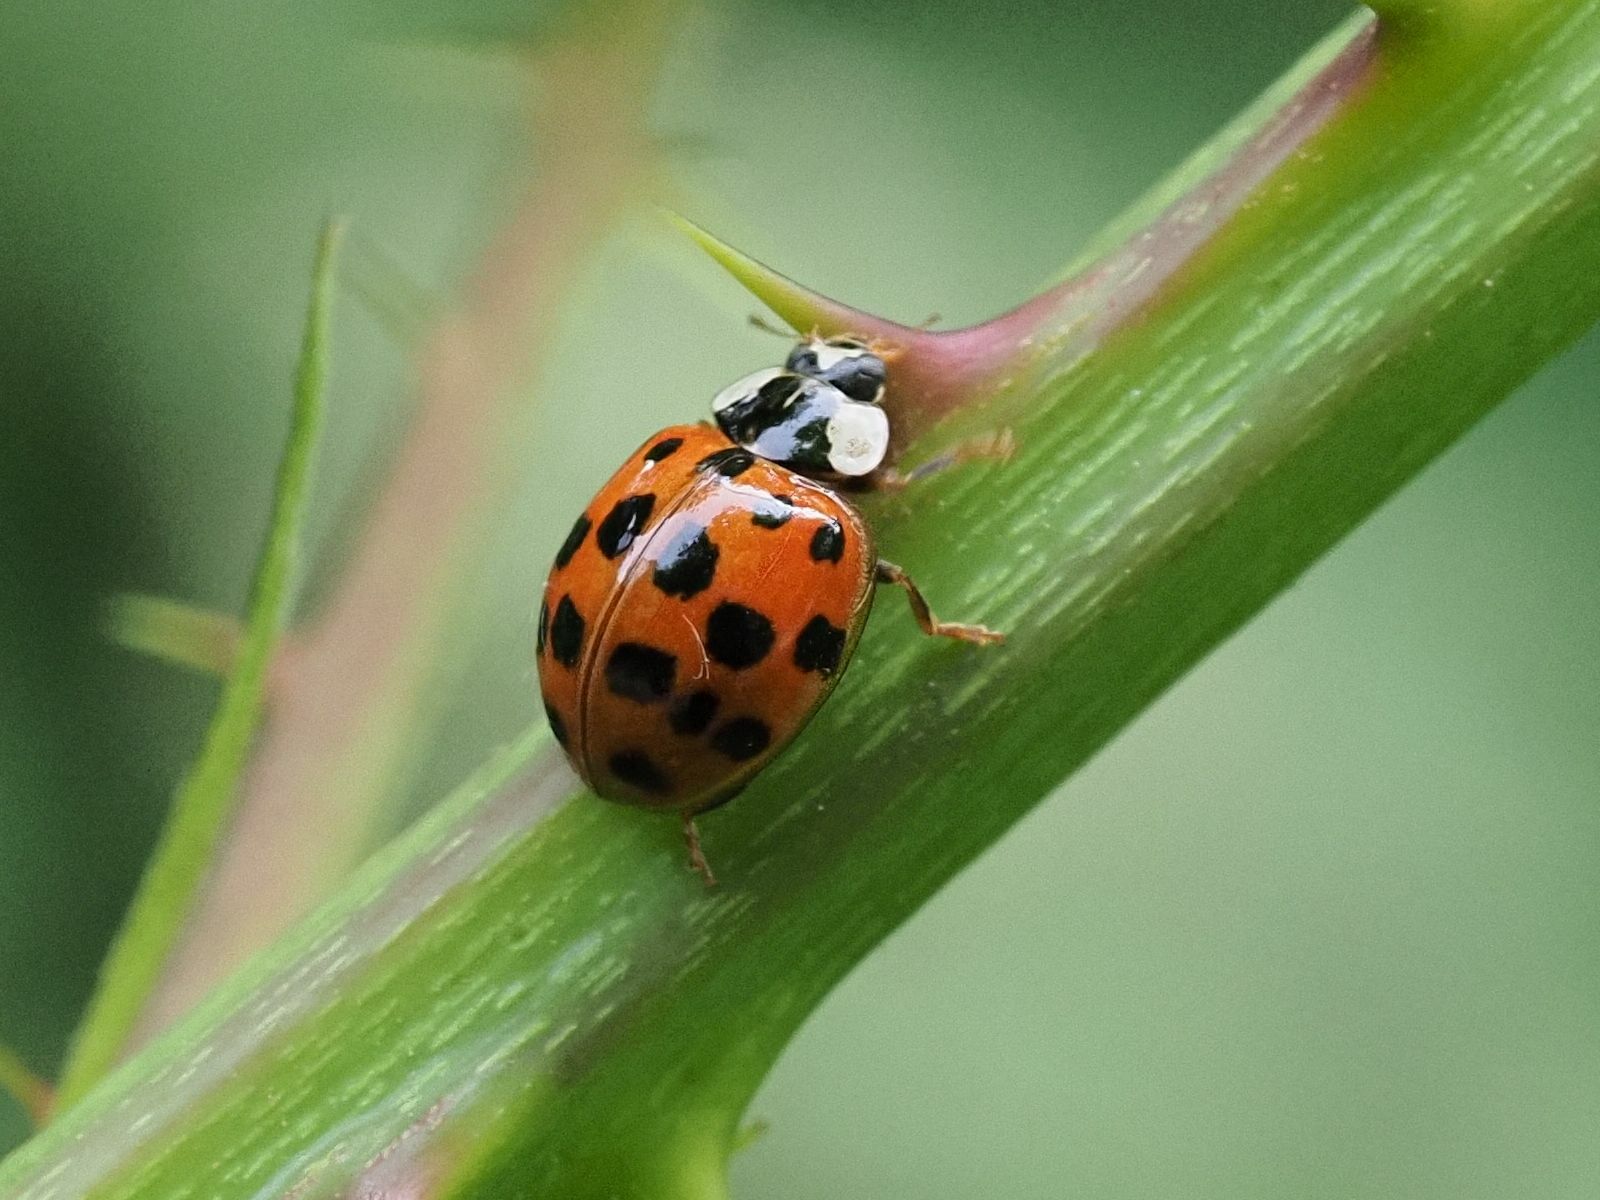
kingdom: Animalia
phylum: Arthropoda
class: Insecta
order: Coleoptera
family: Coccinellidae
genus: Harmonia
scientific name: Harmonia axyridis
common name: Harlequin ladybird
